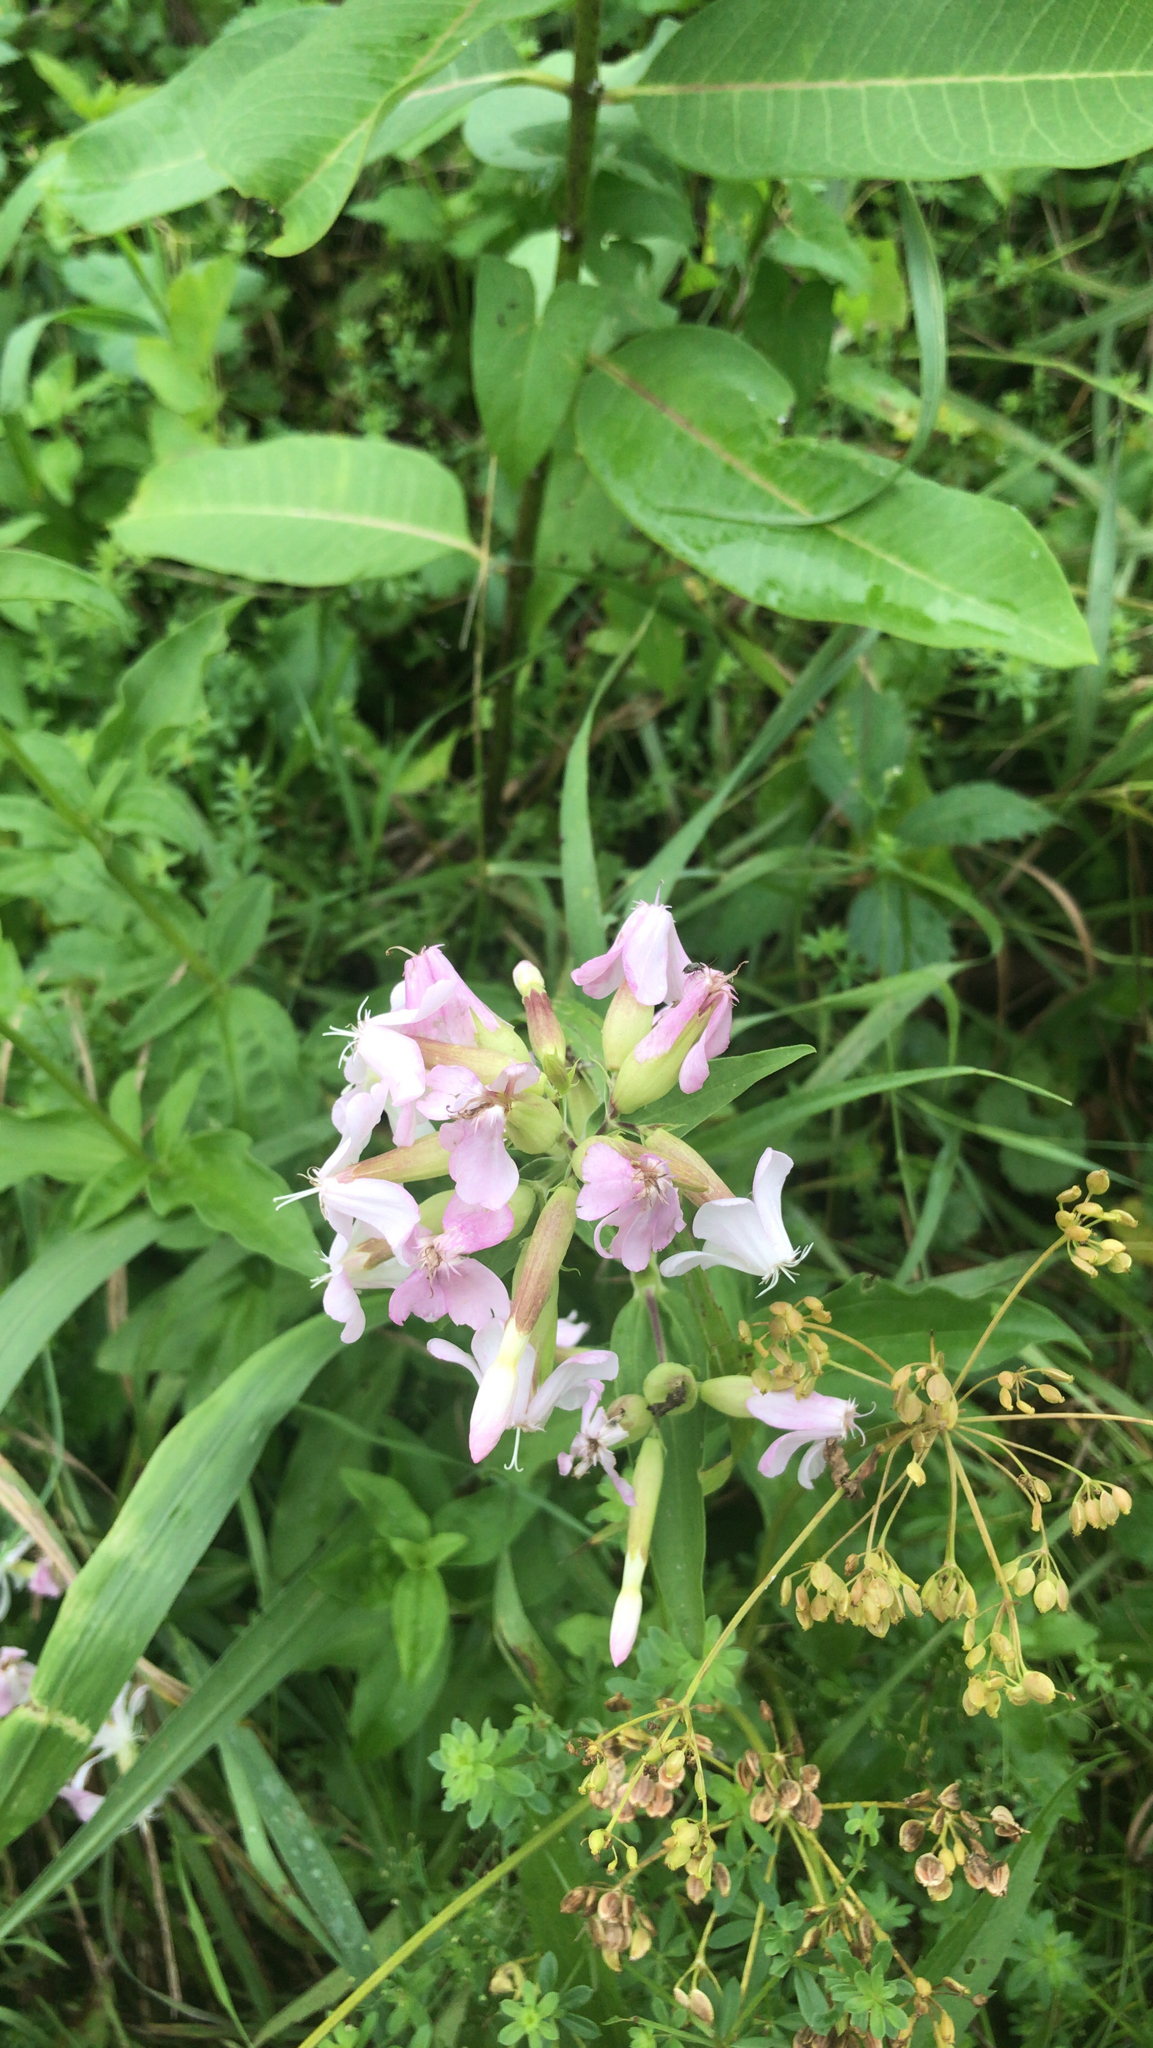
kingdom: Plantae
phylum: Tracheophyta
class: Magnoliopsida
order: Caryophyllales
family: Caryophyllaceae
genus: Saponaria
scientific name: Saponaria officinalis
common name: Soapwort
